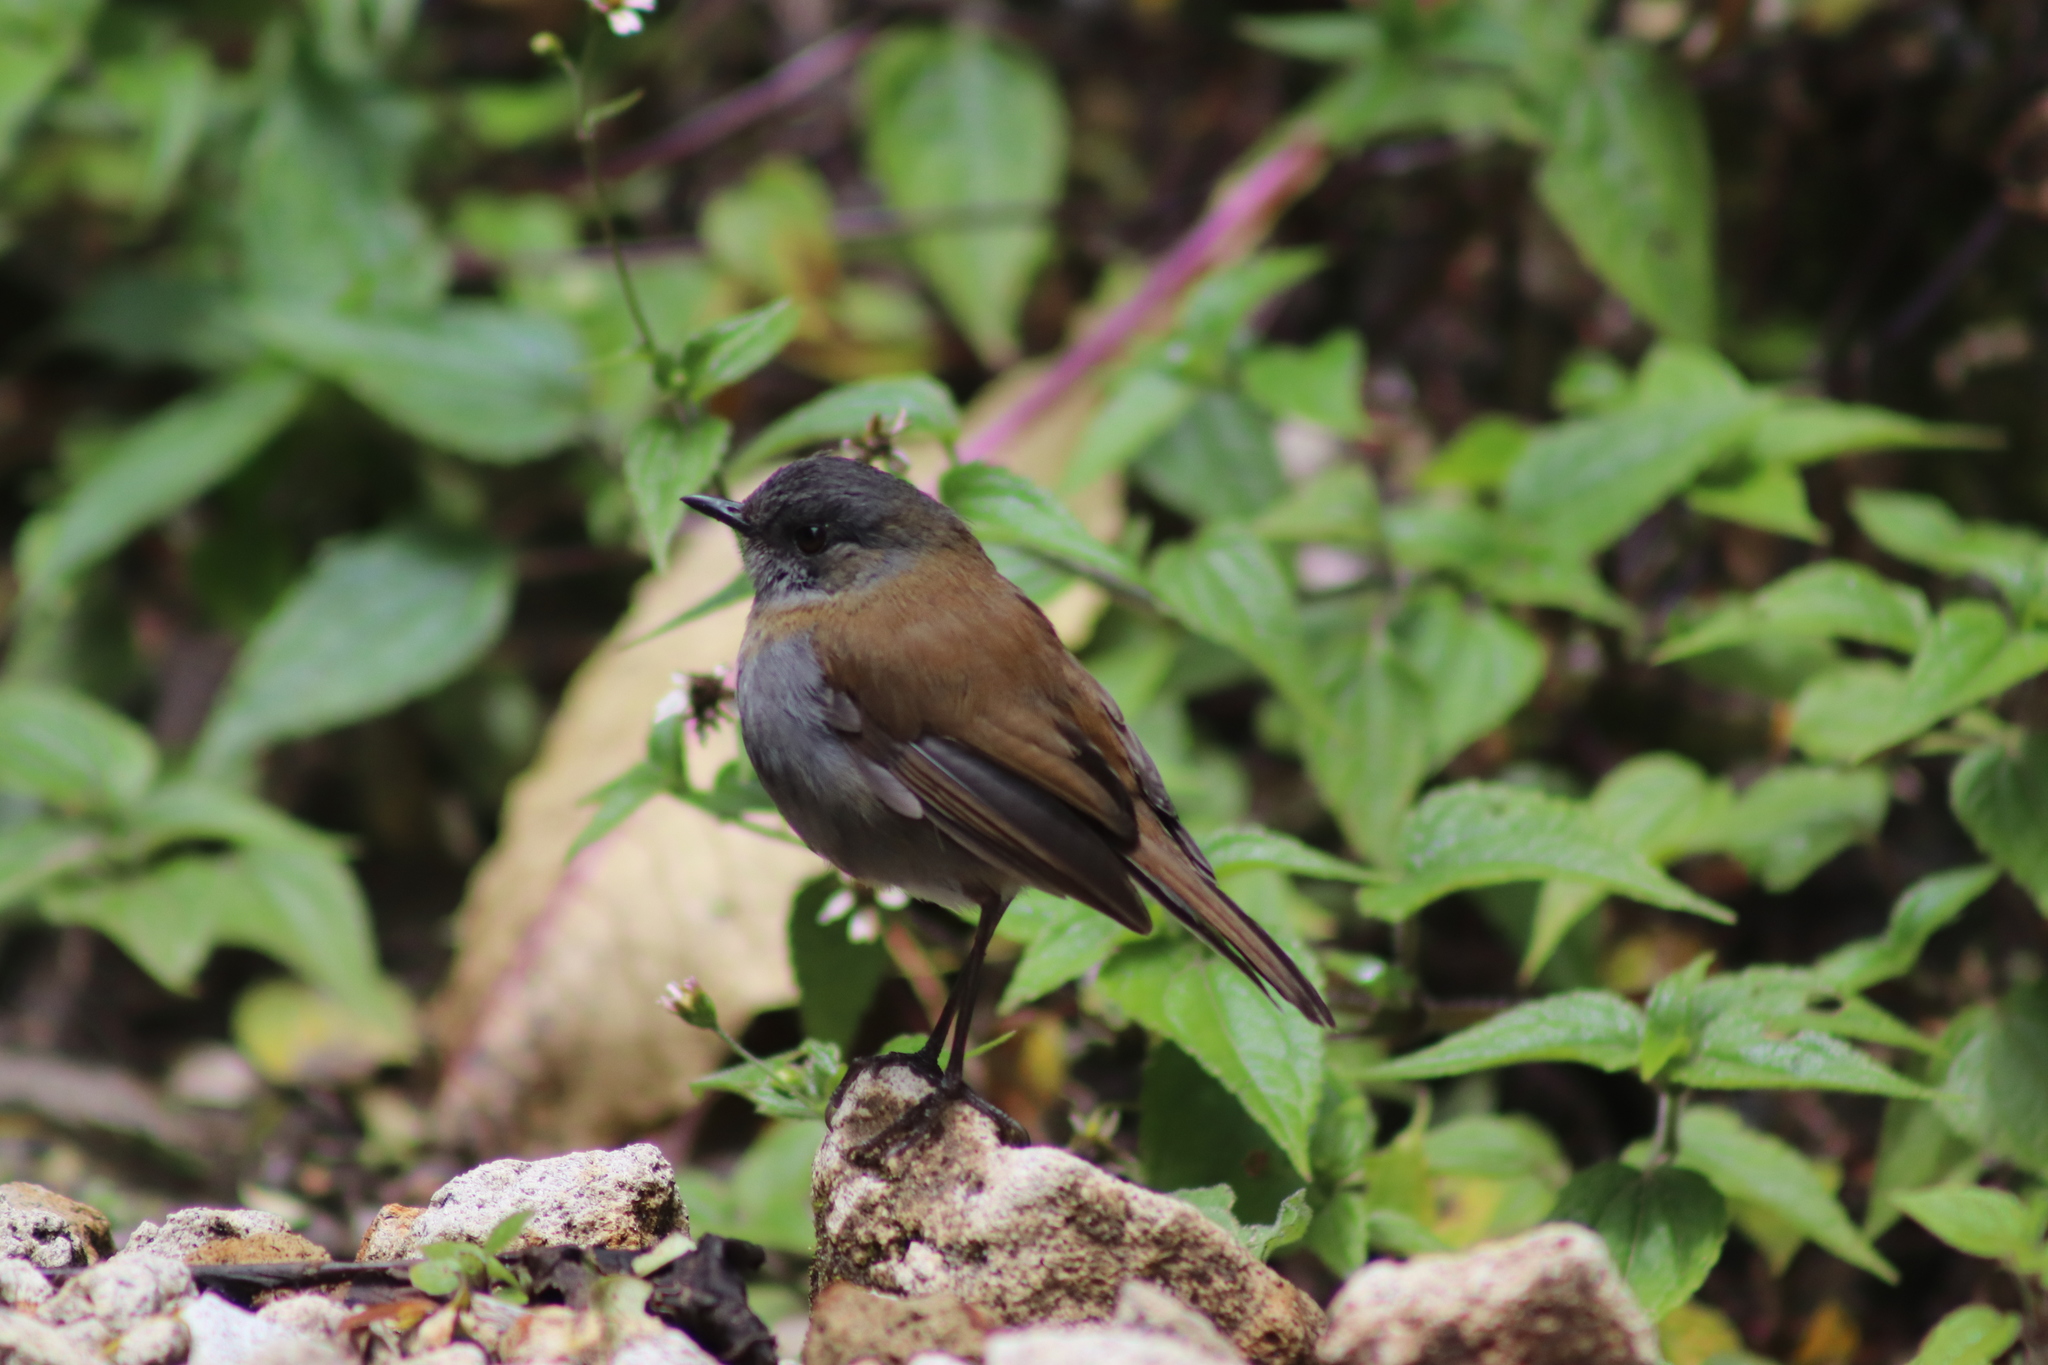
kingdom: Animalia
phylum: Chordata
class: Aves
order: Passeriformes
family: Turdidae
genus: Catharus
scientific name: Catharus gracilirostris
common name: Black-billed nightingale-thrush
